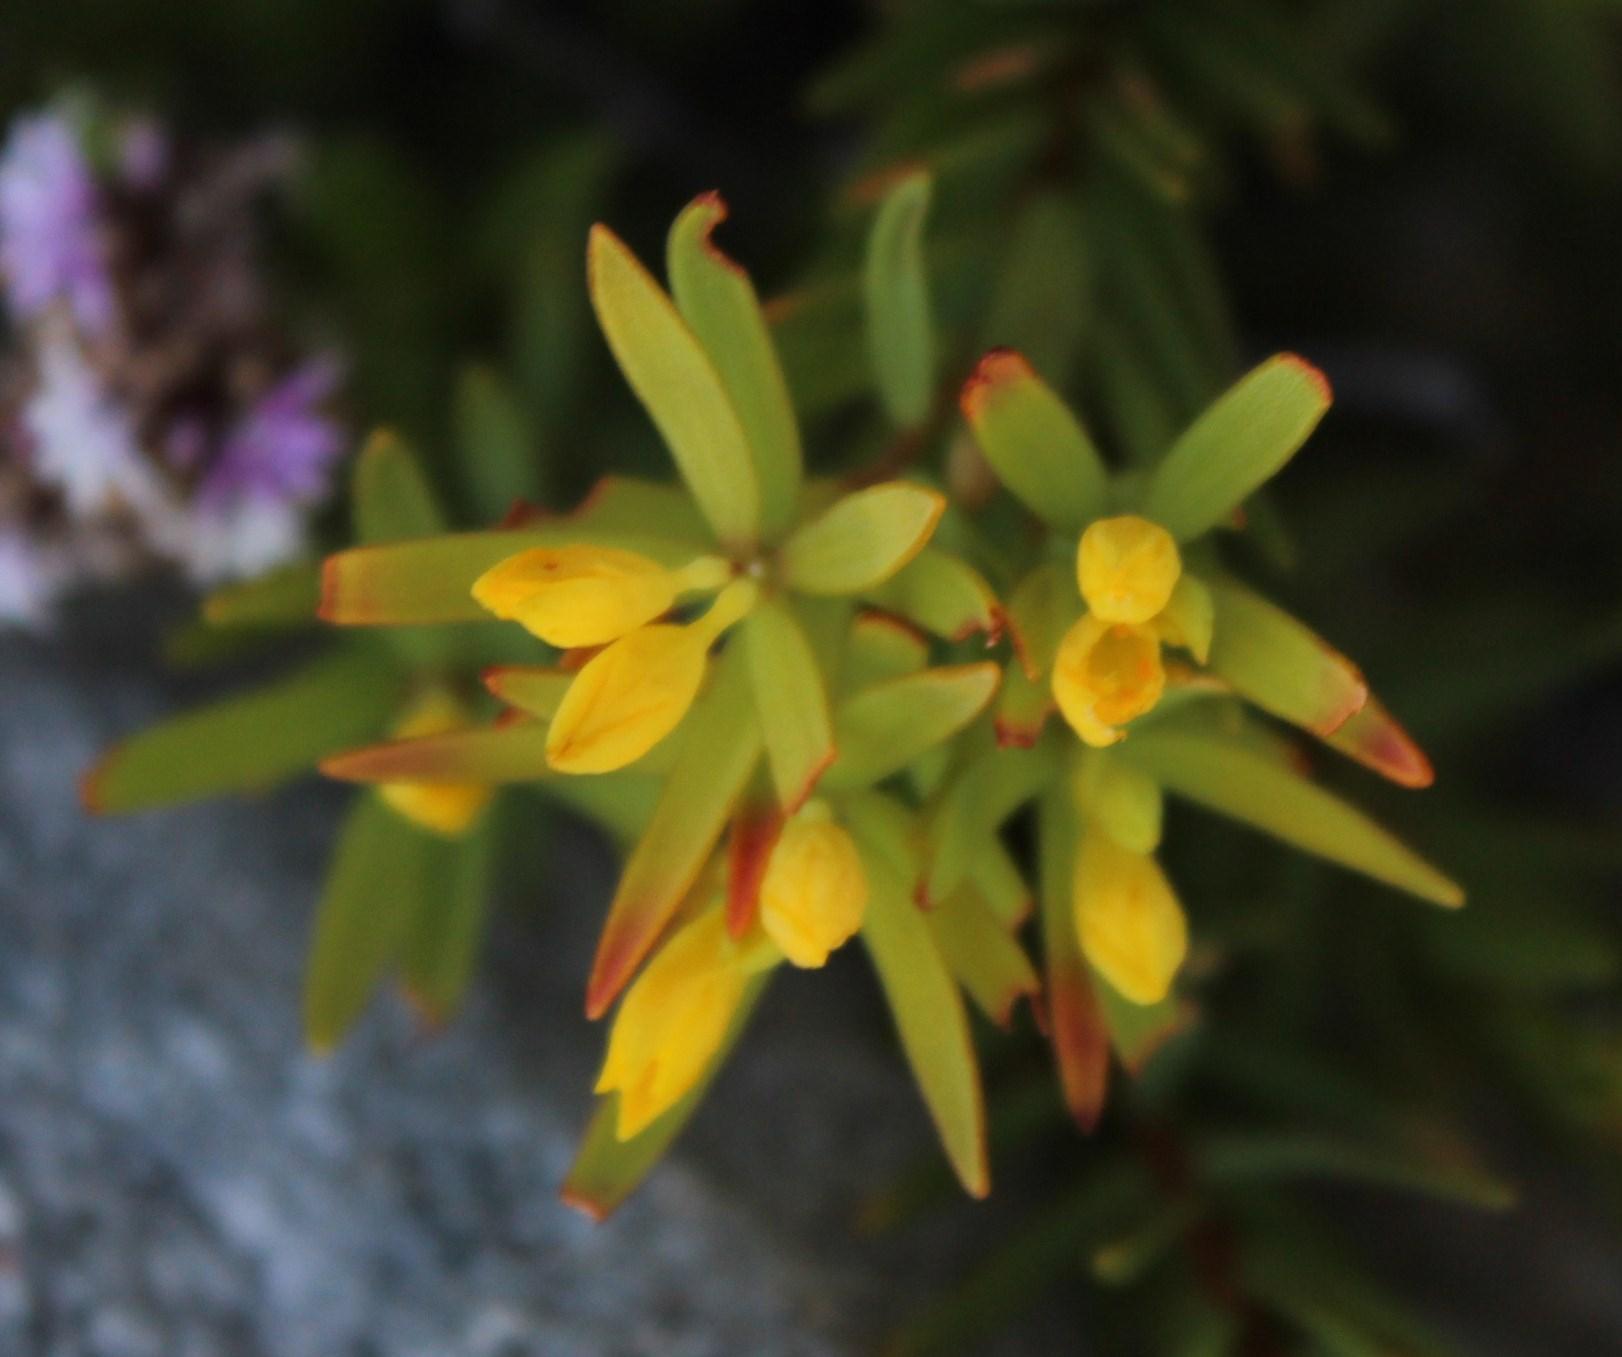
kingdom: Plantae
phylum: Tracheophyta
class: Magnoliopsida
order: Malvales
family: Thymelaeaceae
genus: Gnidia
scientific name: Gnidia juniperifolia
